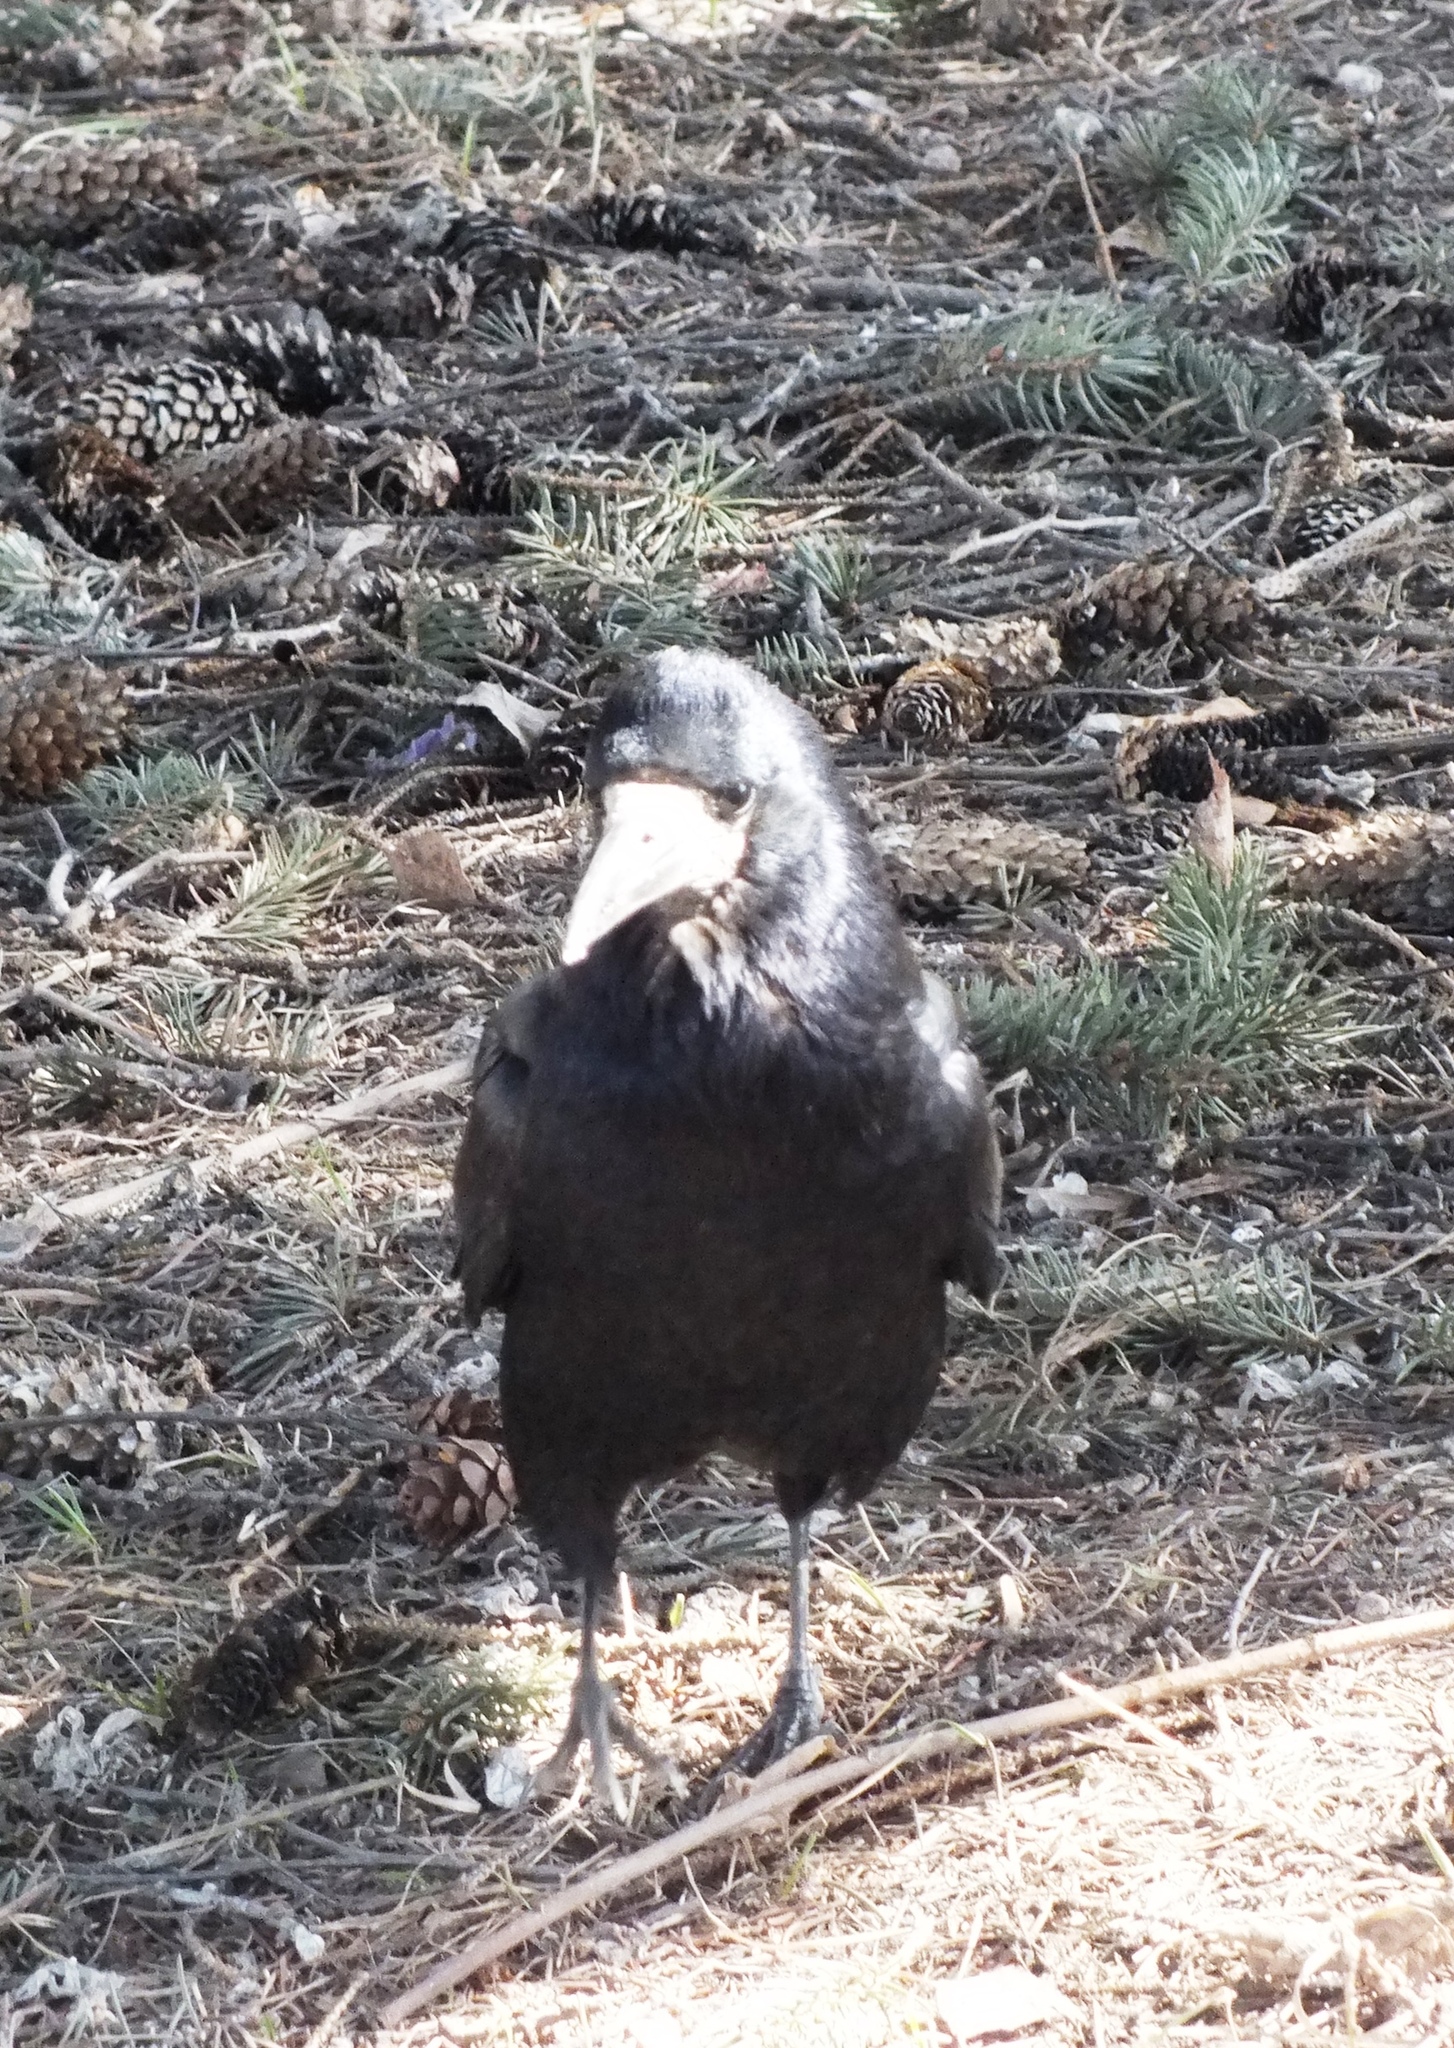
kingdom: Animalia
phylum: Chordata
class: Aves
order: Passeriformes
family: Corvidae
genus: Corvus
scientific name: Corvus frugilegus
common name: Rook
